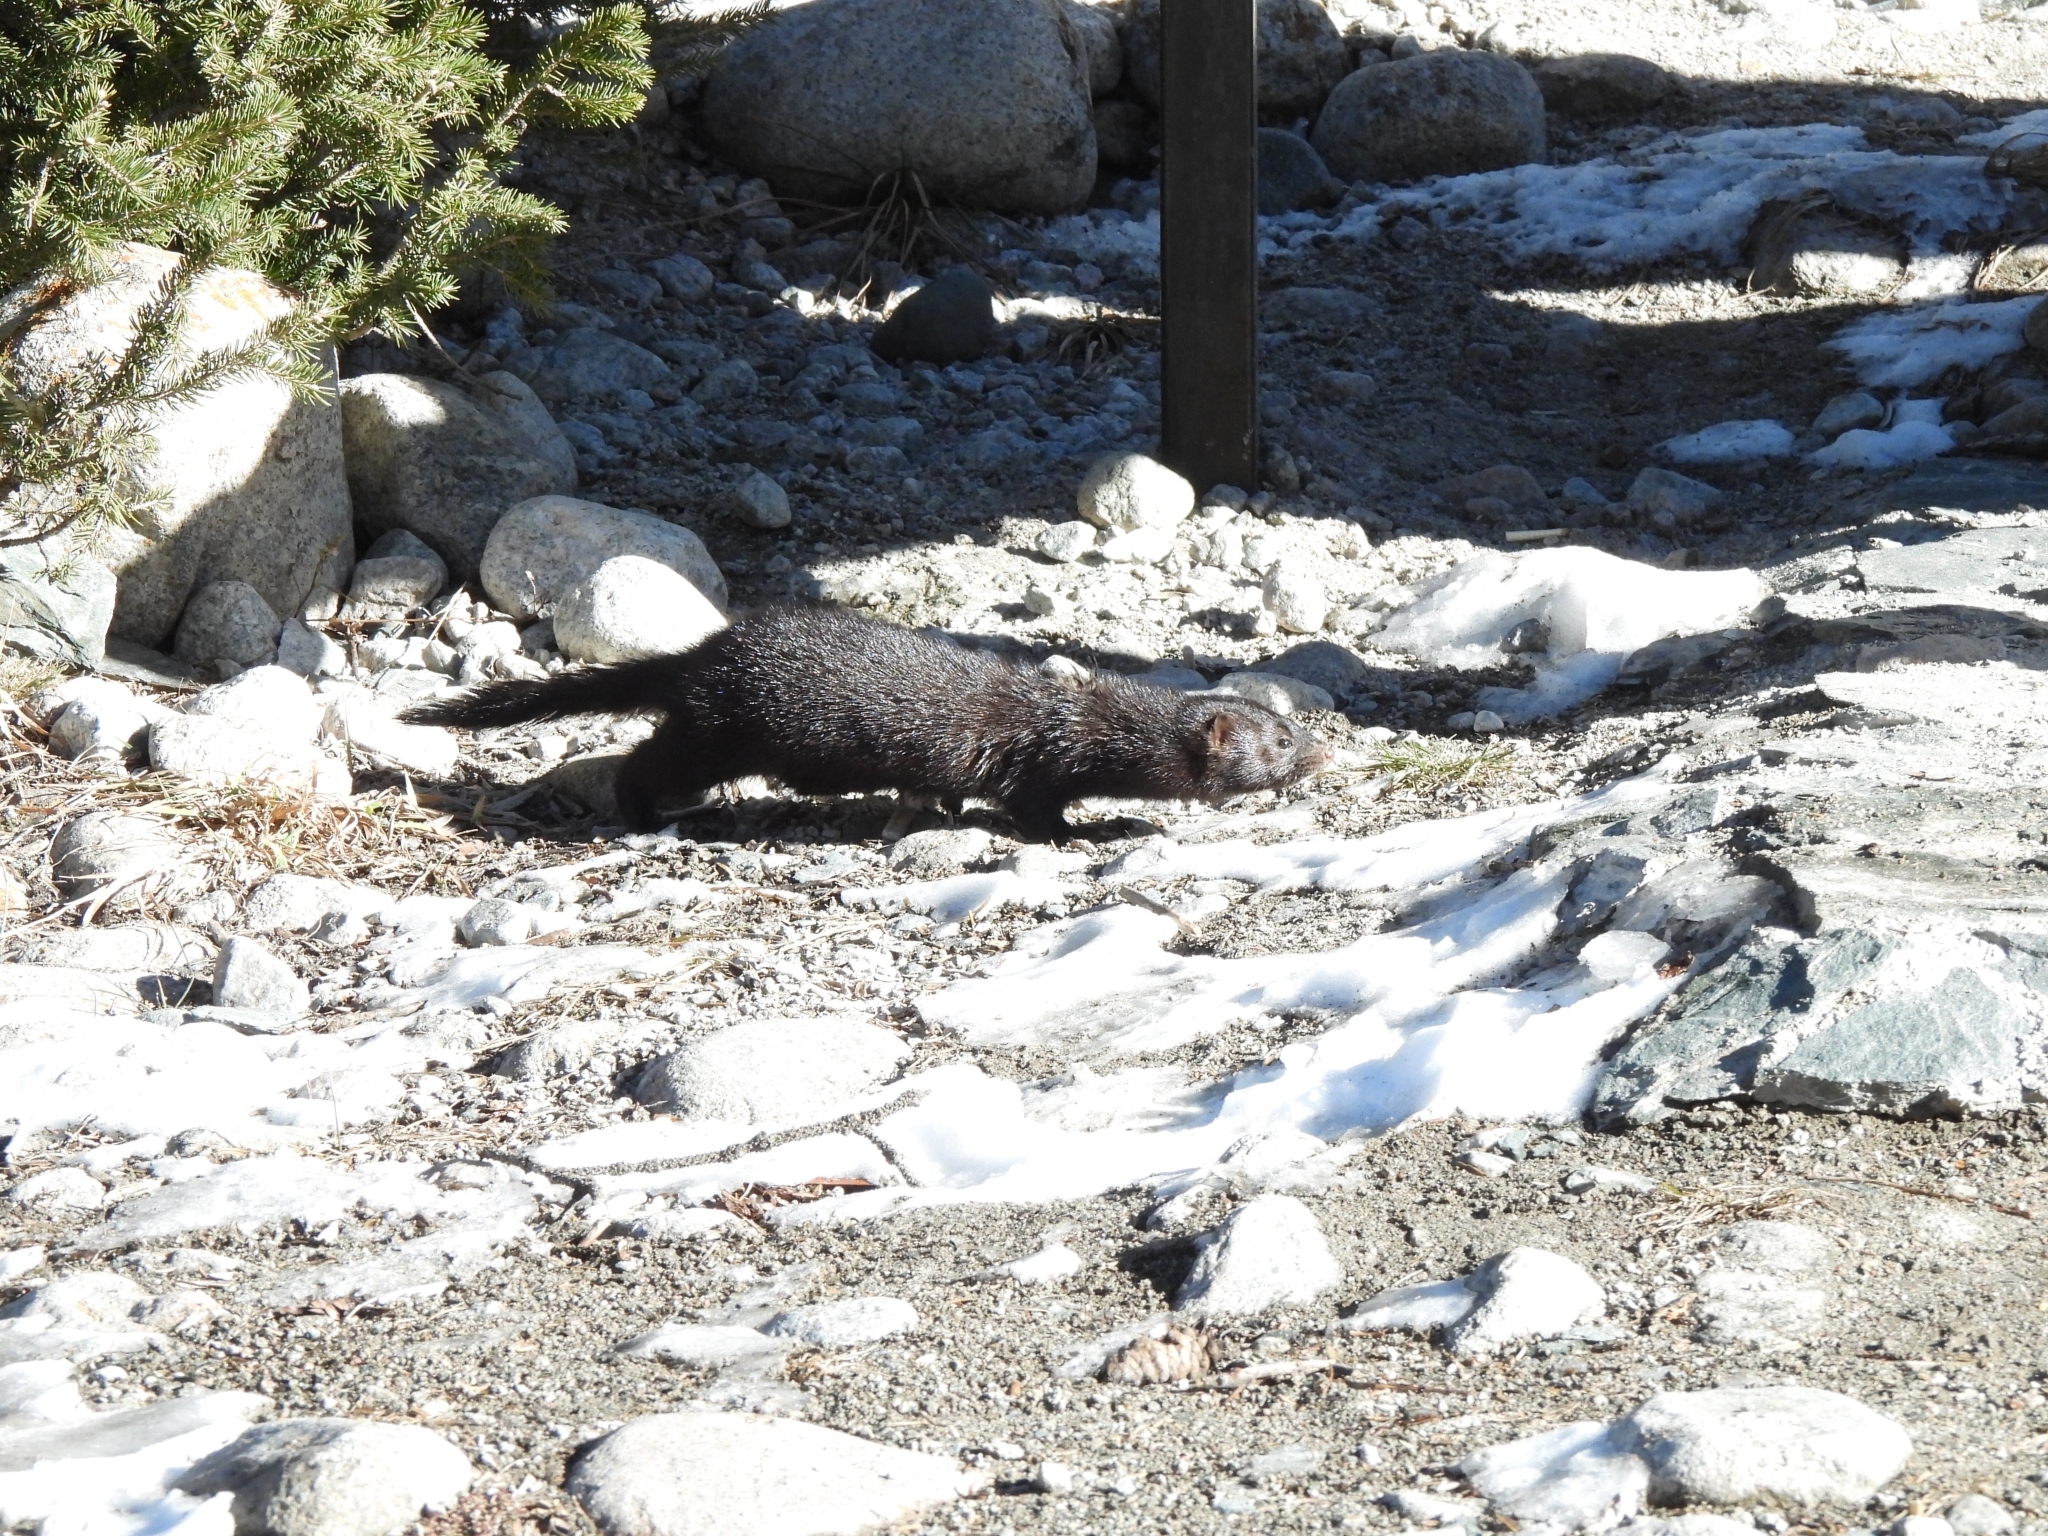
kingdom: Animalia
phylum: Chordata
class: Mammalia
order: Carnivora
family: Mustelidae
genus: Mustela
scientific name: Mustela
